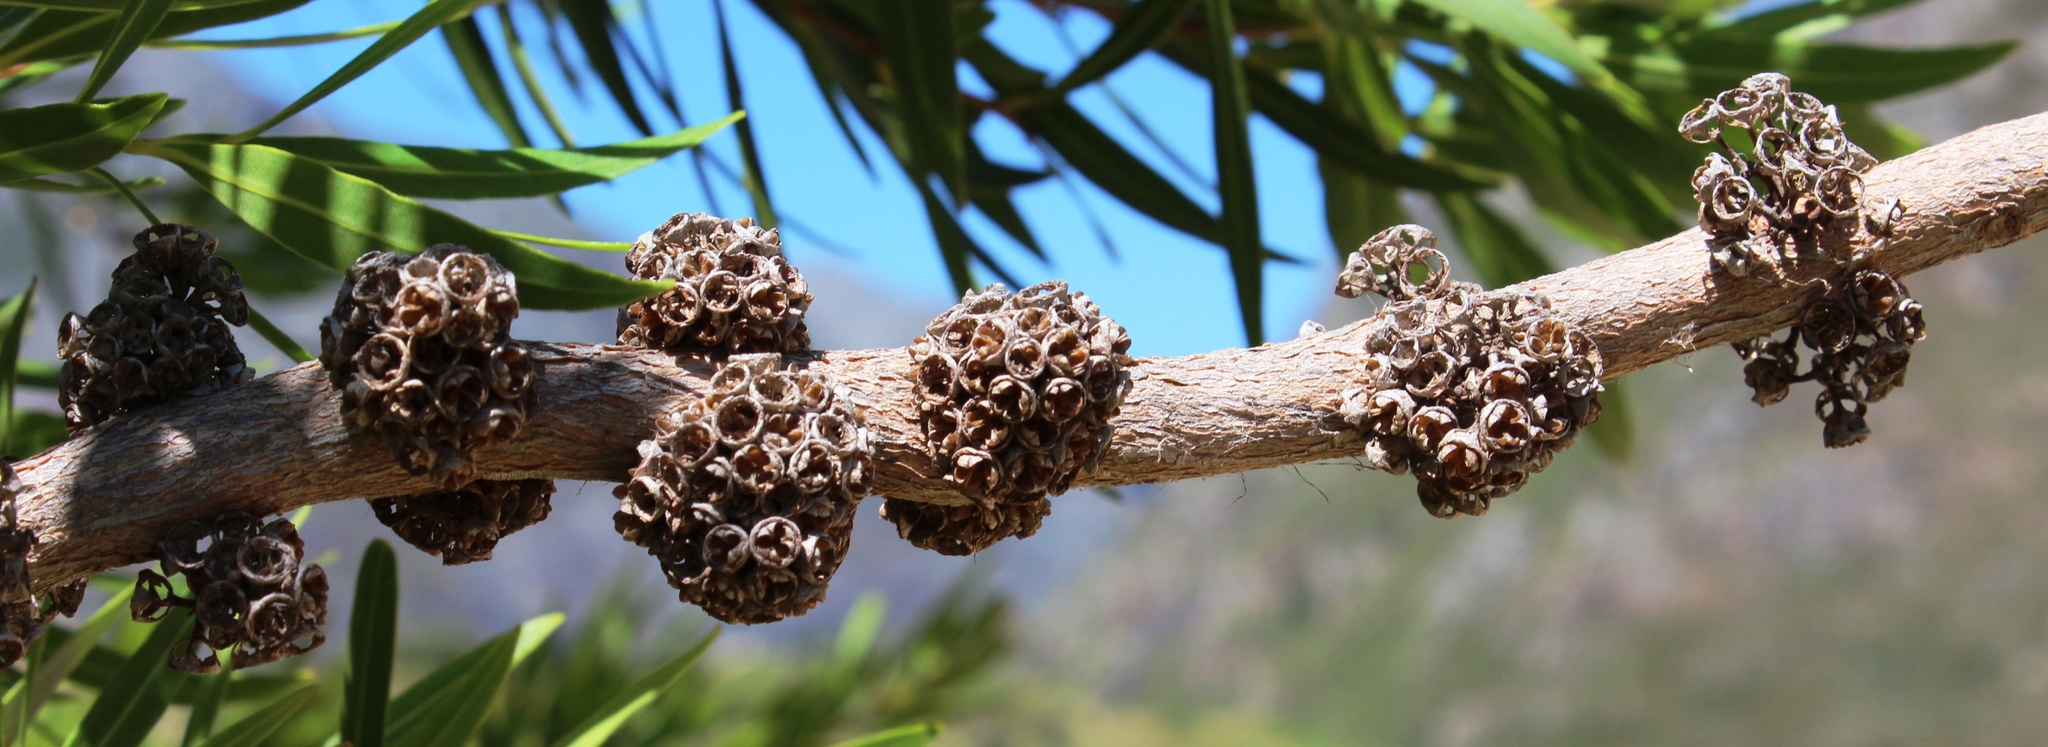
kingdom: Plantae
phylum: Tracheophyta
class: Magnoliopsida
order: Myrtales
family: Myrtaceae
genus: Callistemon
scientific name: Callistemon lanceolatus
